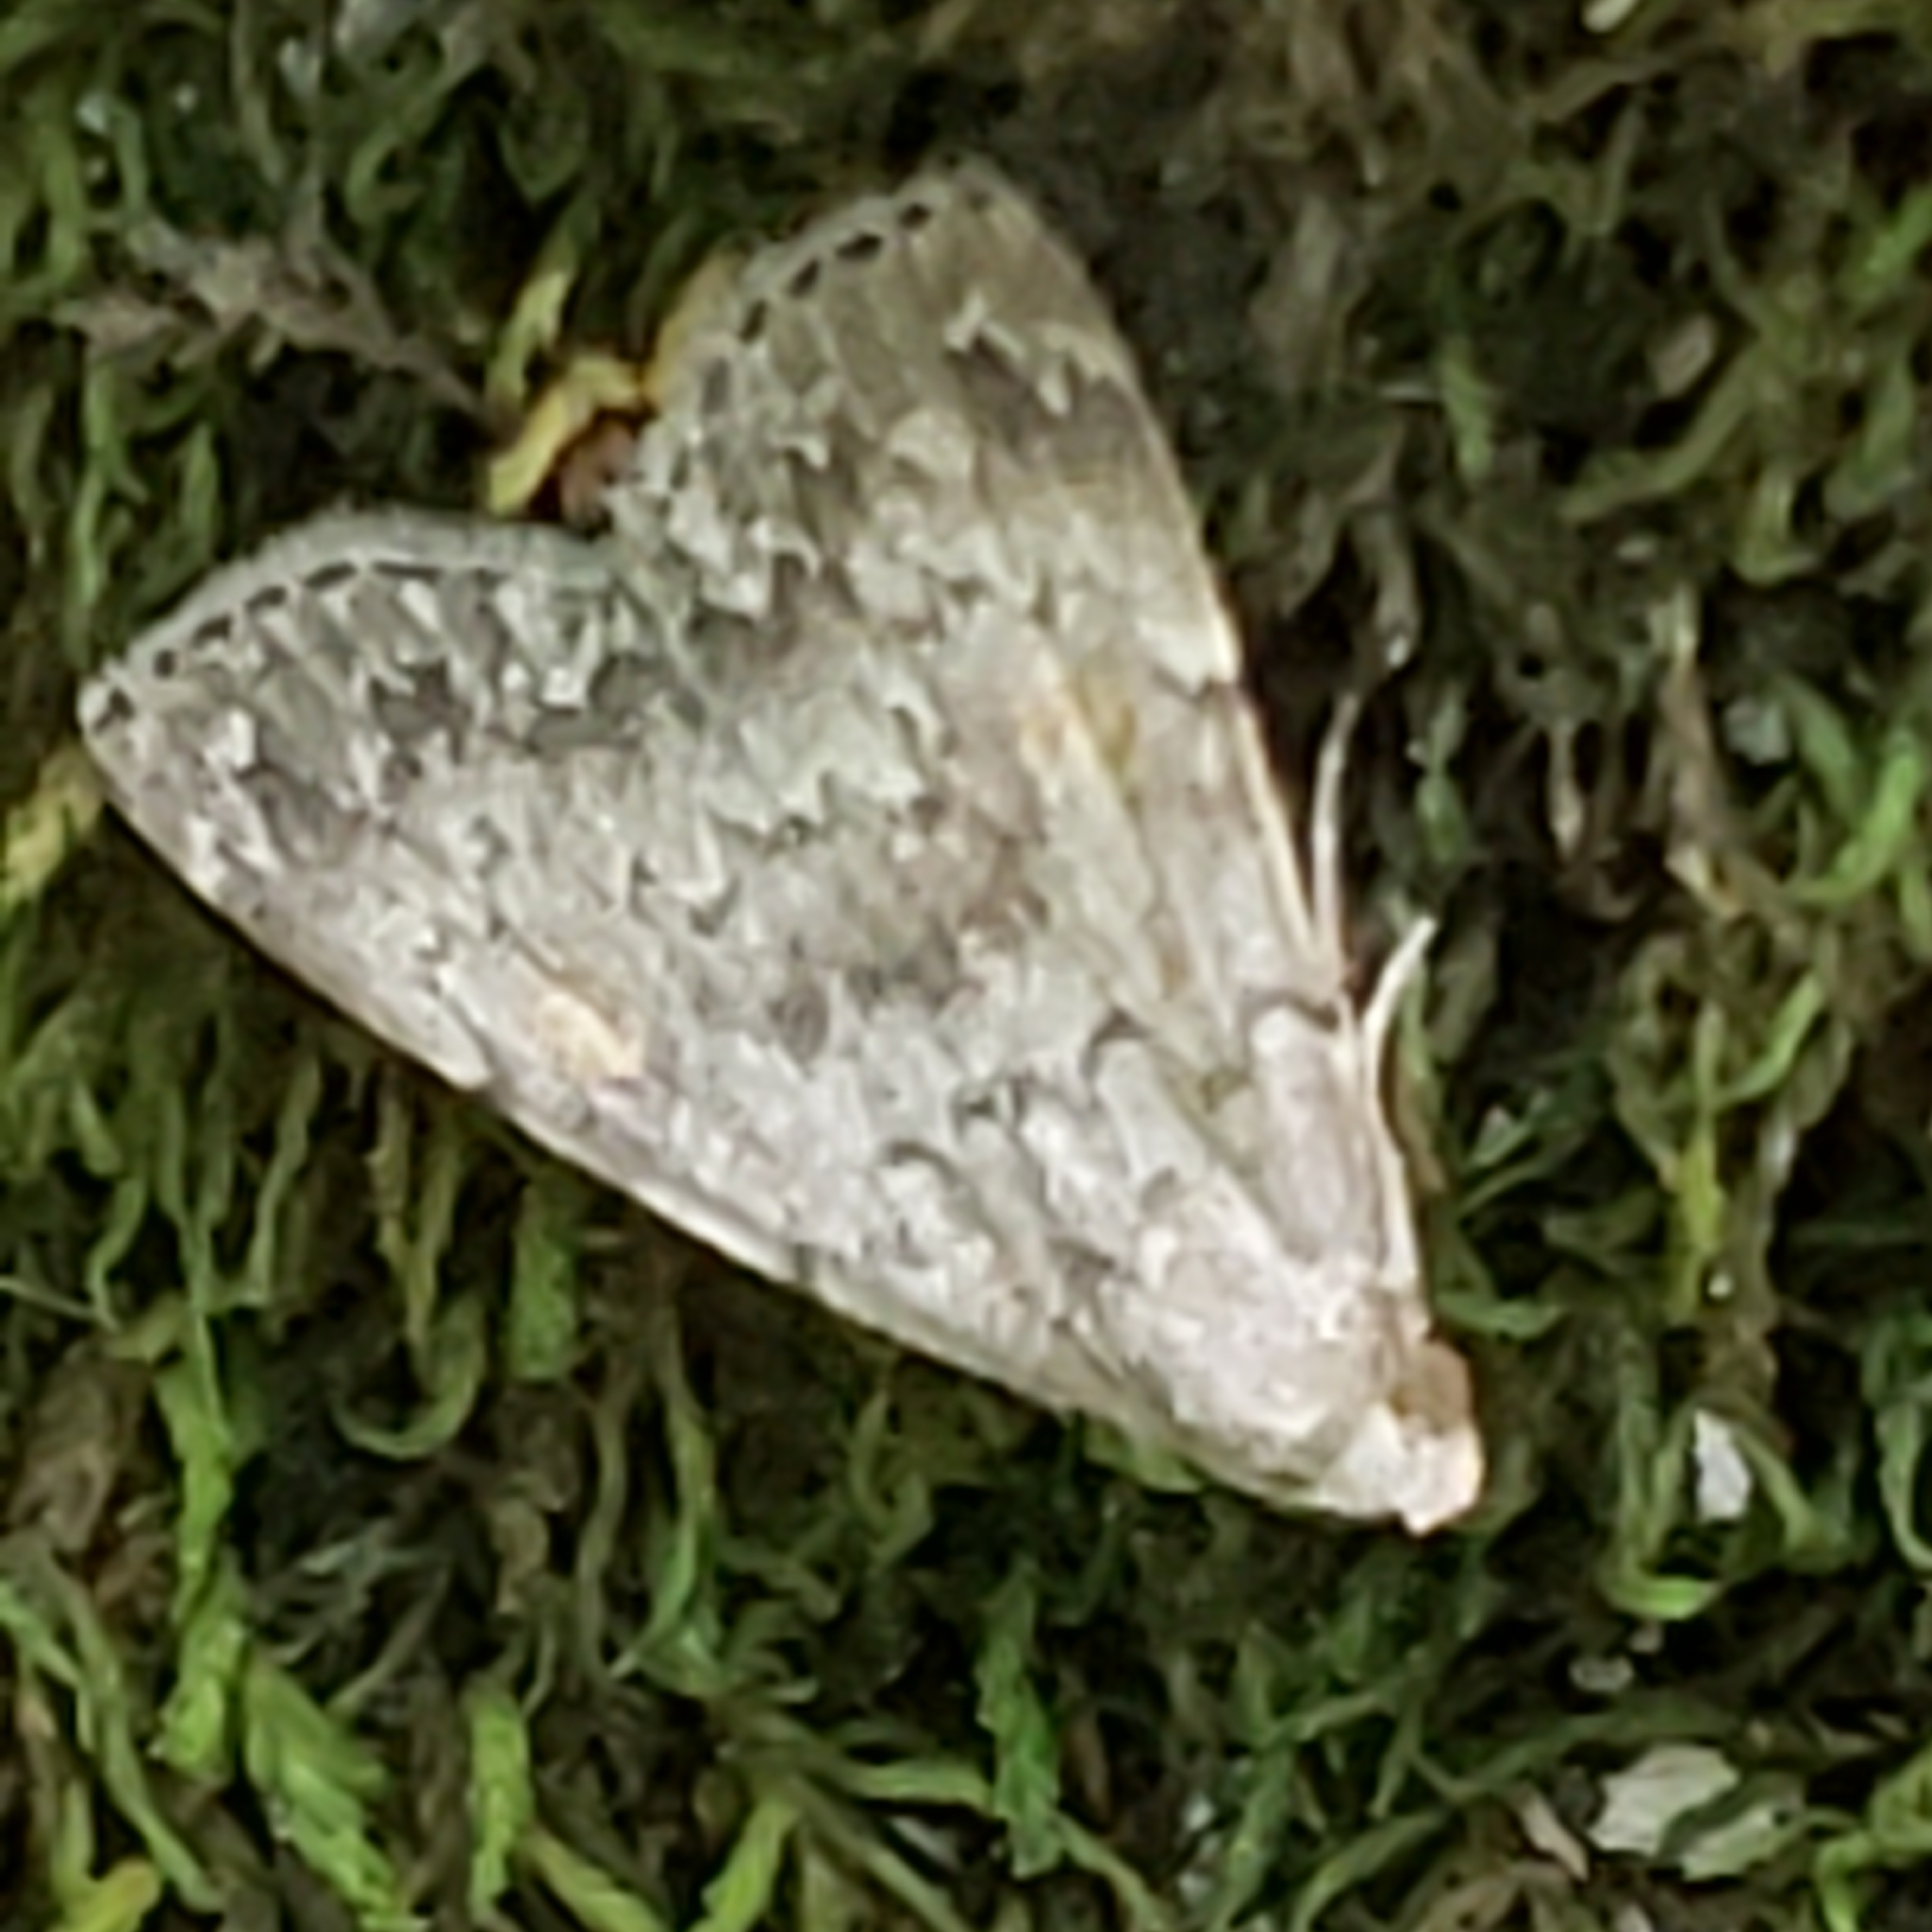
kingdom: Animalia
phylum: Arthropoda
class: Insecta
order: Lepidoptera
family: Erebidae
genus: Idia
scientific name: Idia aemula
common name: Common idia moth
